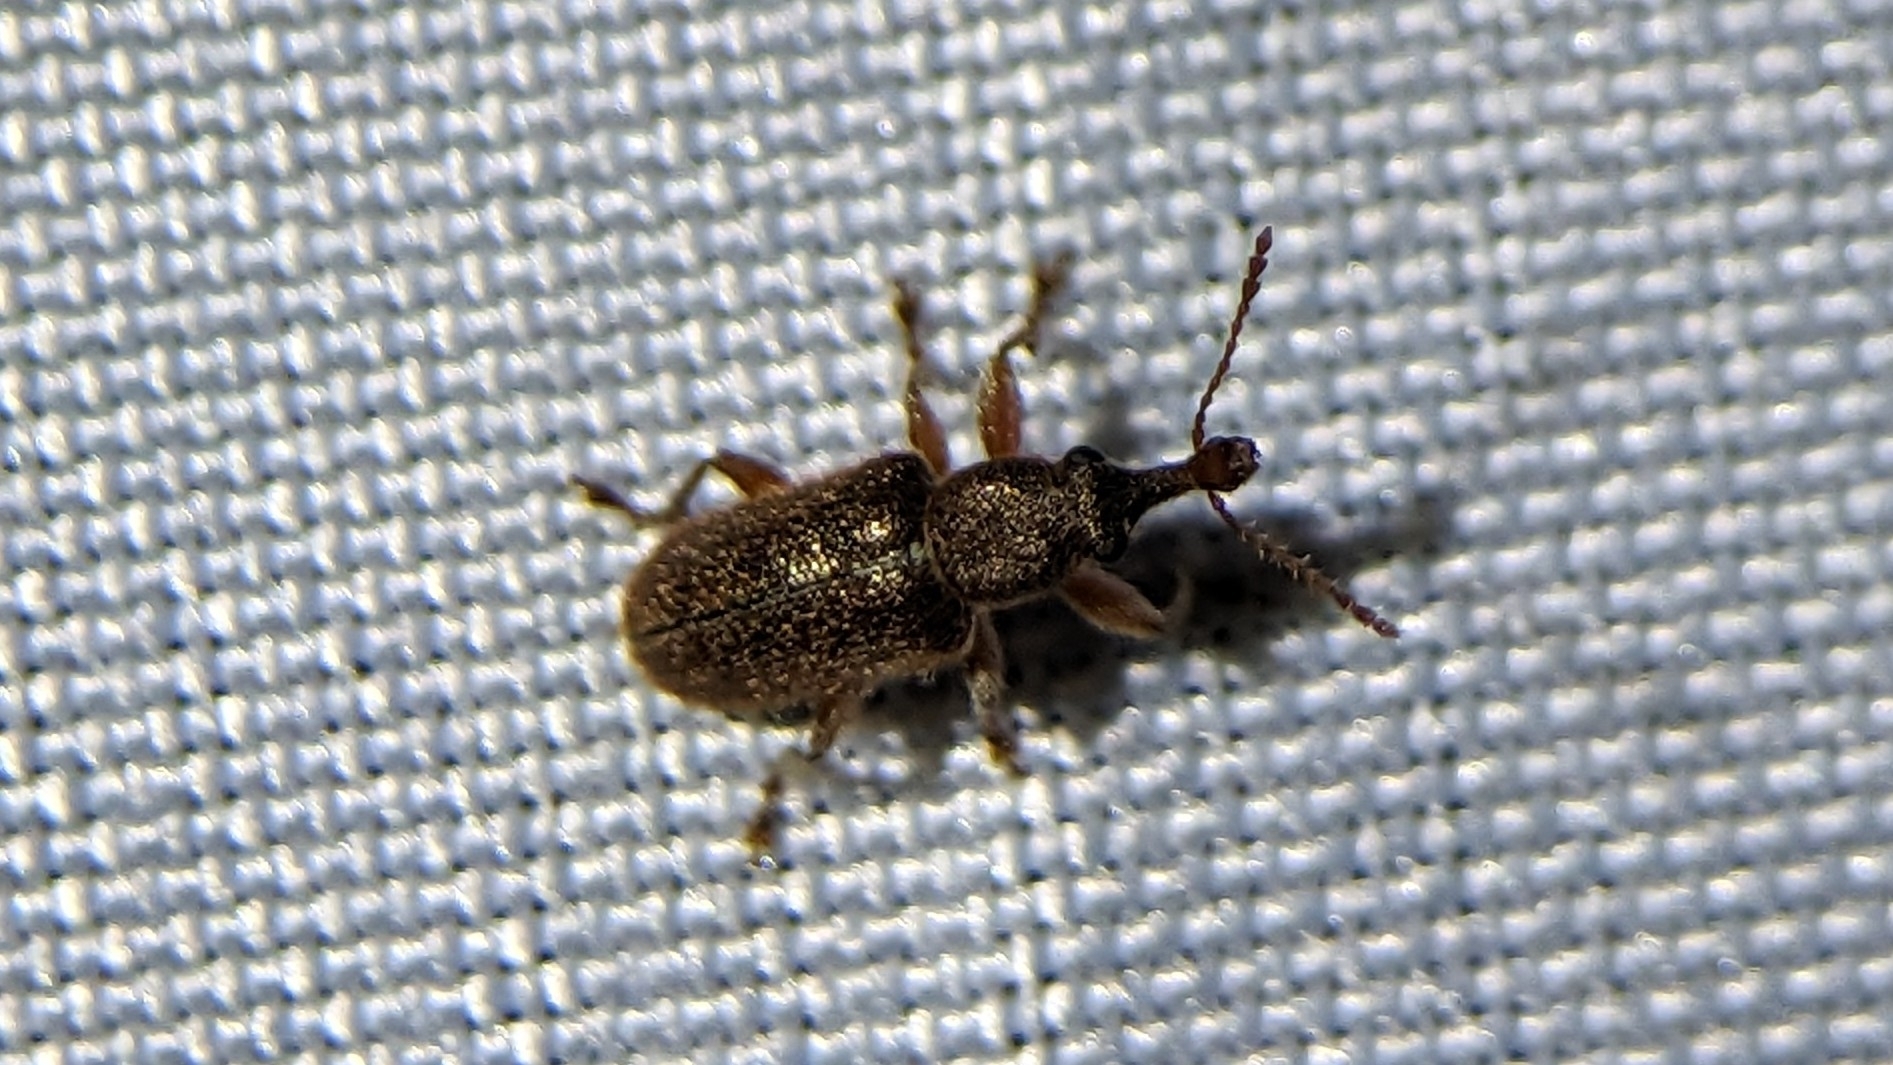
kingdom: Animalia
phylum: Arthropoda
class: Insecta
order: Coleoptera
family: Nemonychidae
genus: Cimberis
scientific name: Cimberis elongata
